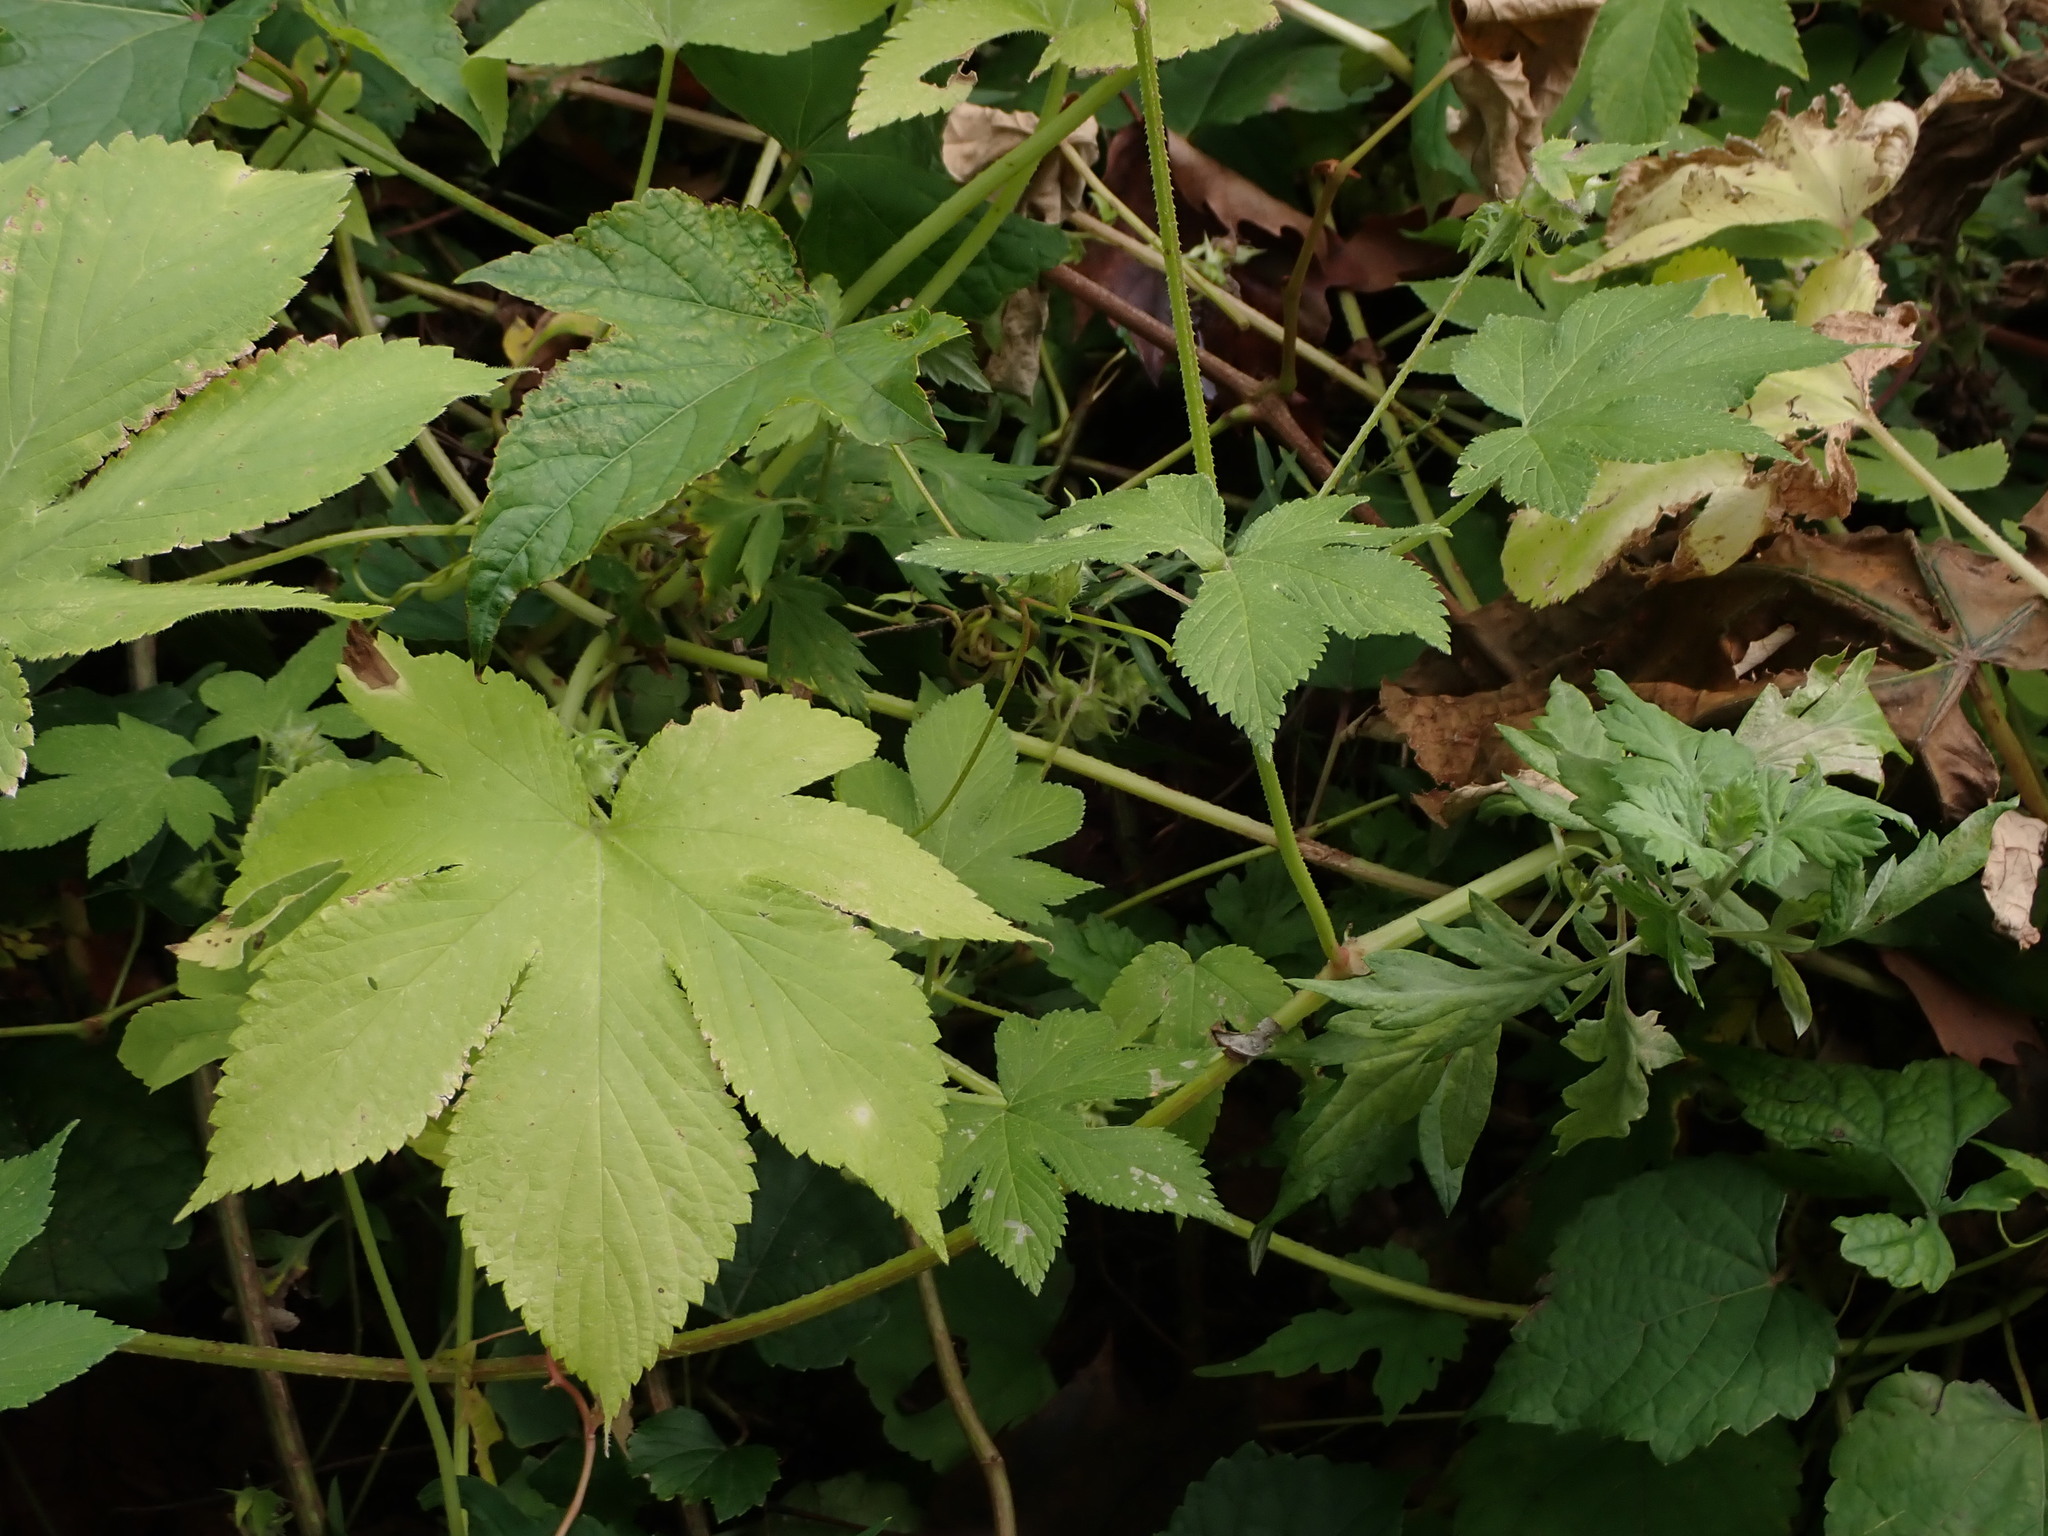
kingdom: Plantae
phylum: Tracheophyta
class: Magnoliopsida
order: Rosales
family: Cannabaceae
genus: Humulus
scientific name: Humulus scandens
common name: Japanese hop
